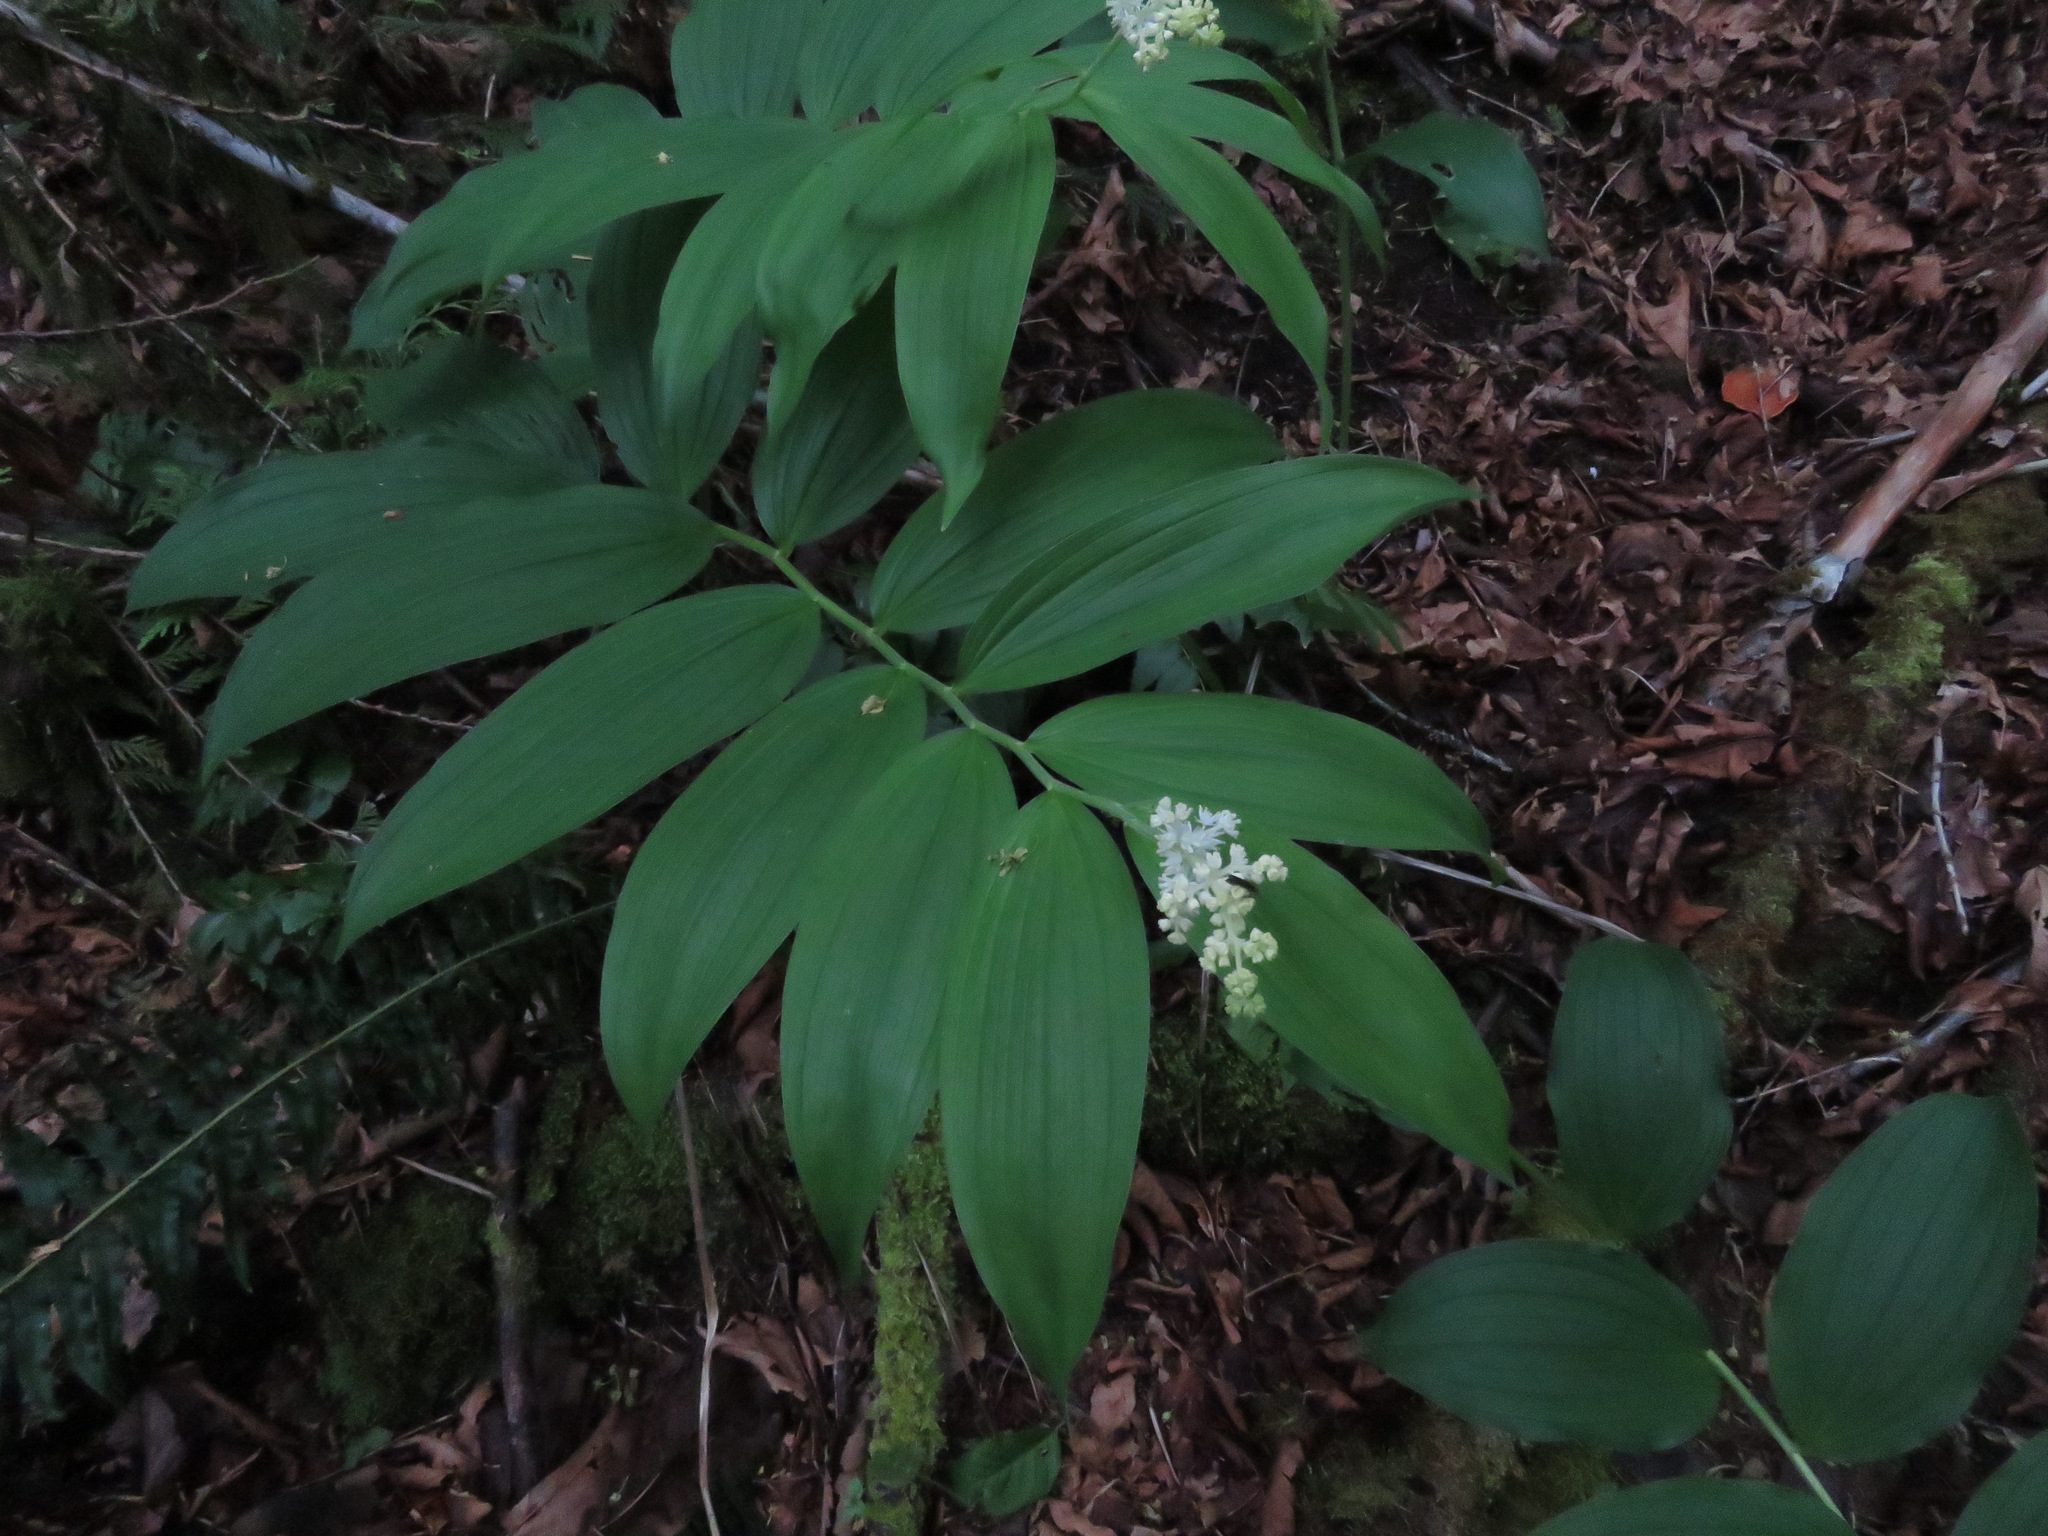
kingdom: Plantae
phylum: Tracheophyta
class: Liliopsida
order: Asparagales
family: Asparagaceae
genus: Maianthemum
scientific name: Maianthemum racemosum
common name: False spikenard
